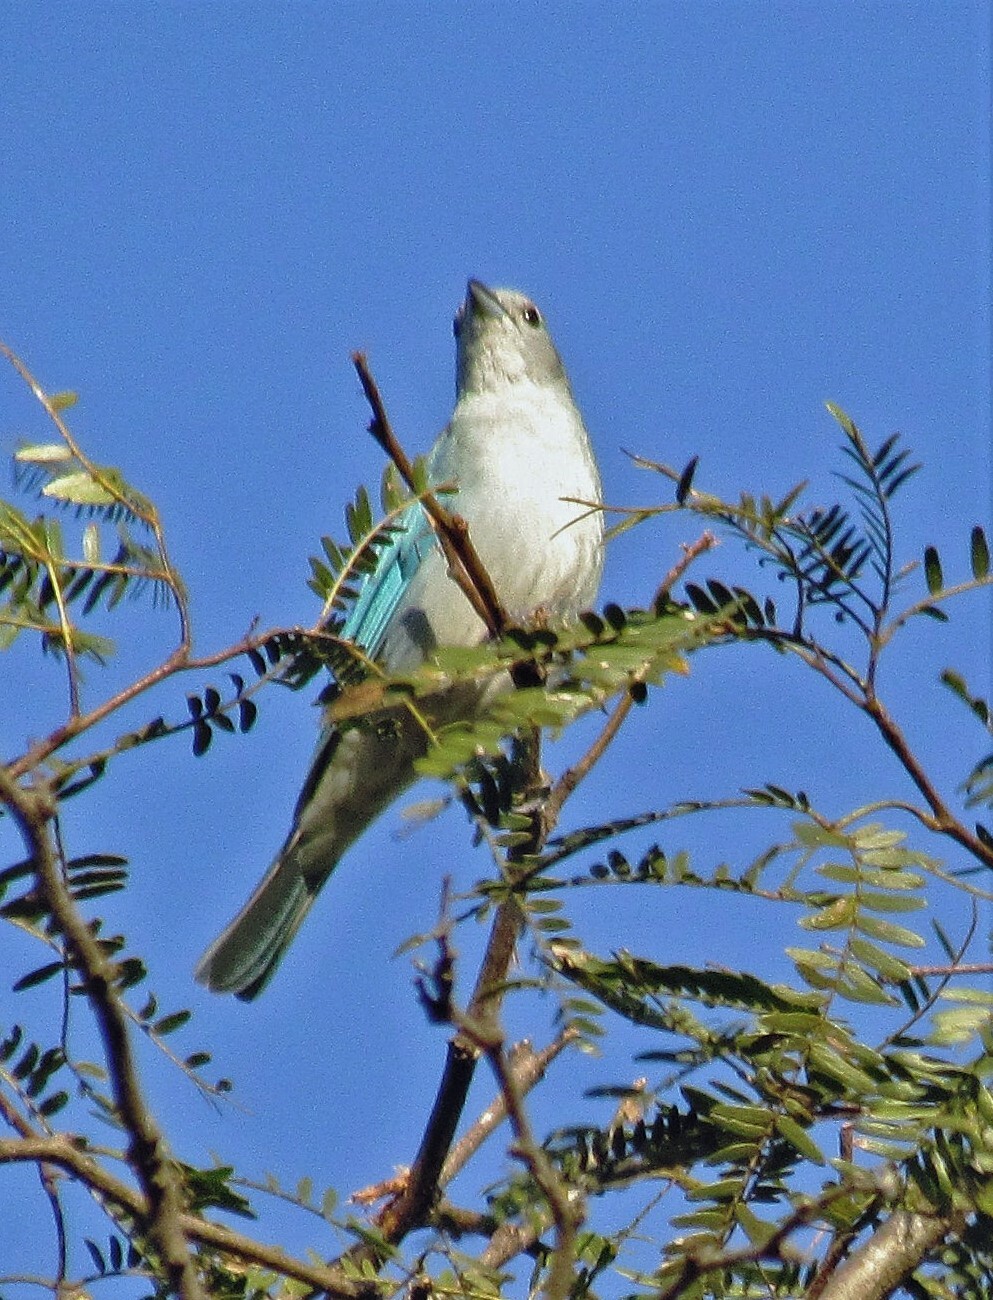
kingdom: Animalia
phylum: Chordata
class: Aves
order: Passeriformes
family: Thraupidae
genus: Thraupis
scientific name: Thraupis sayaca
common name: Sayaca tanager
